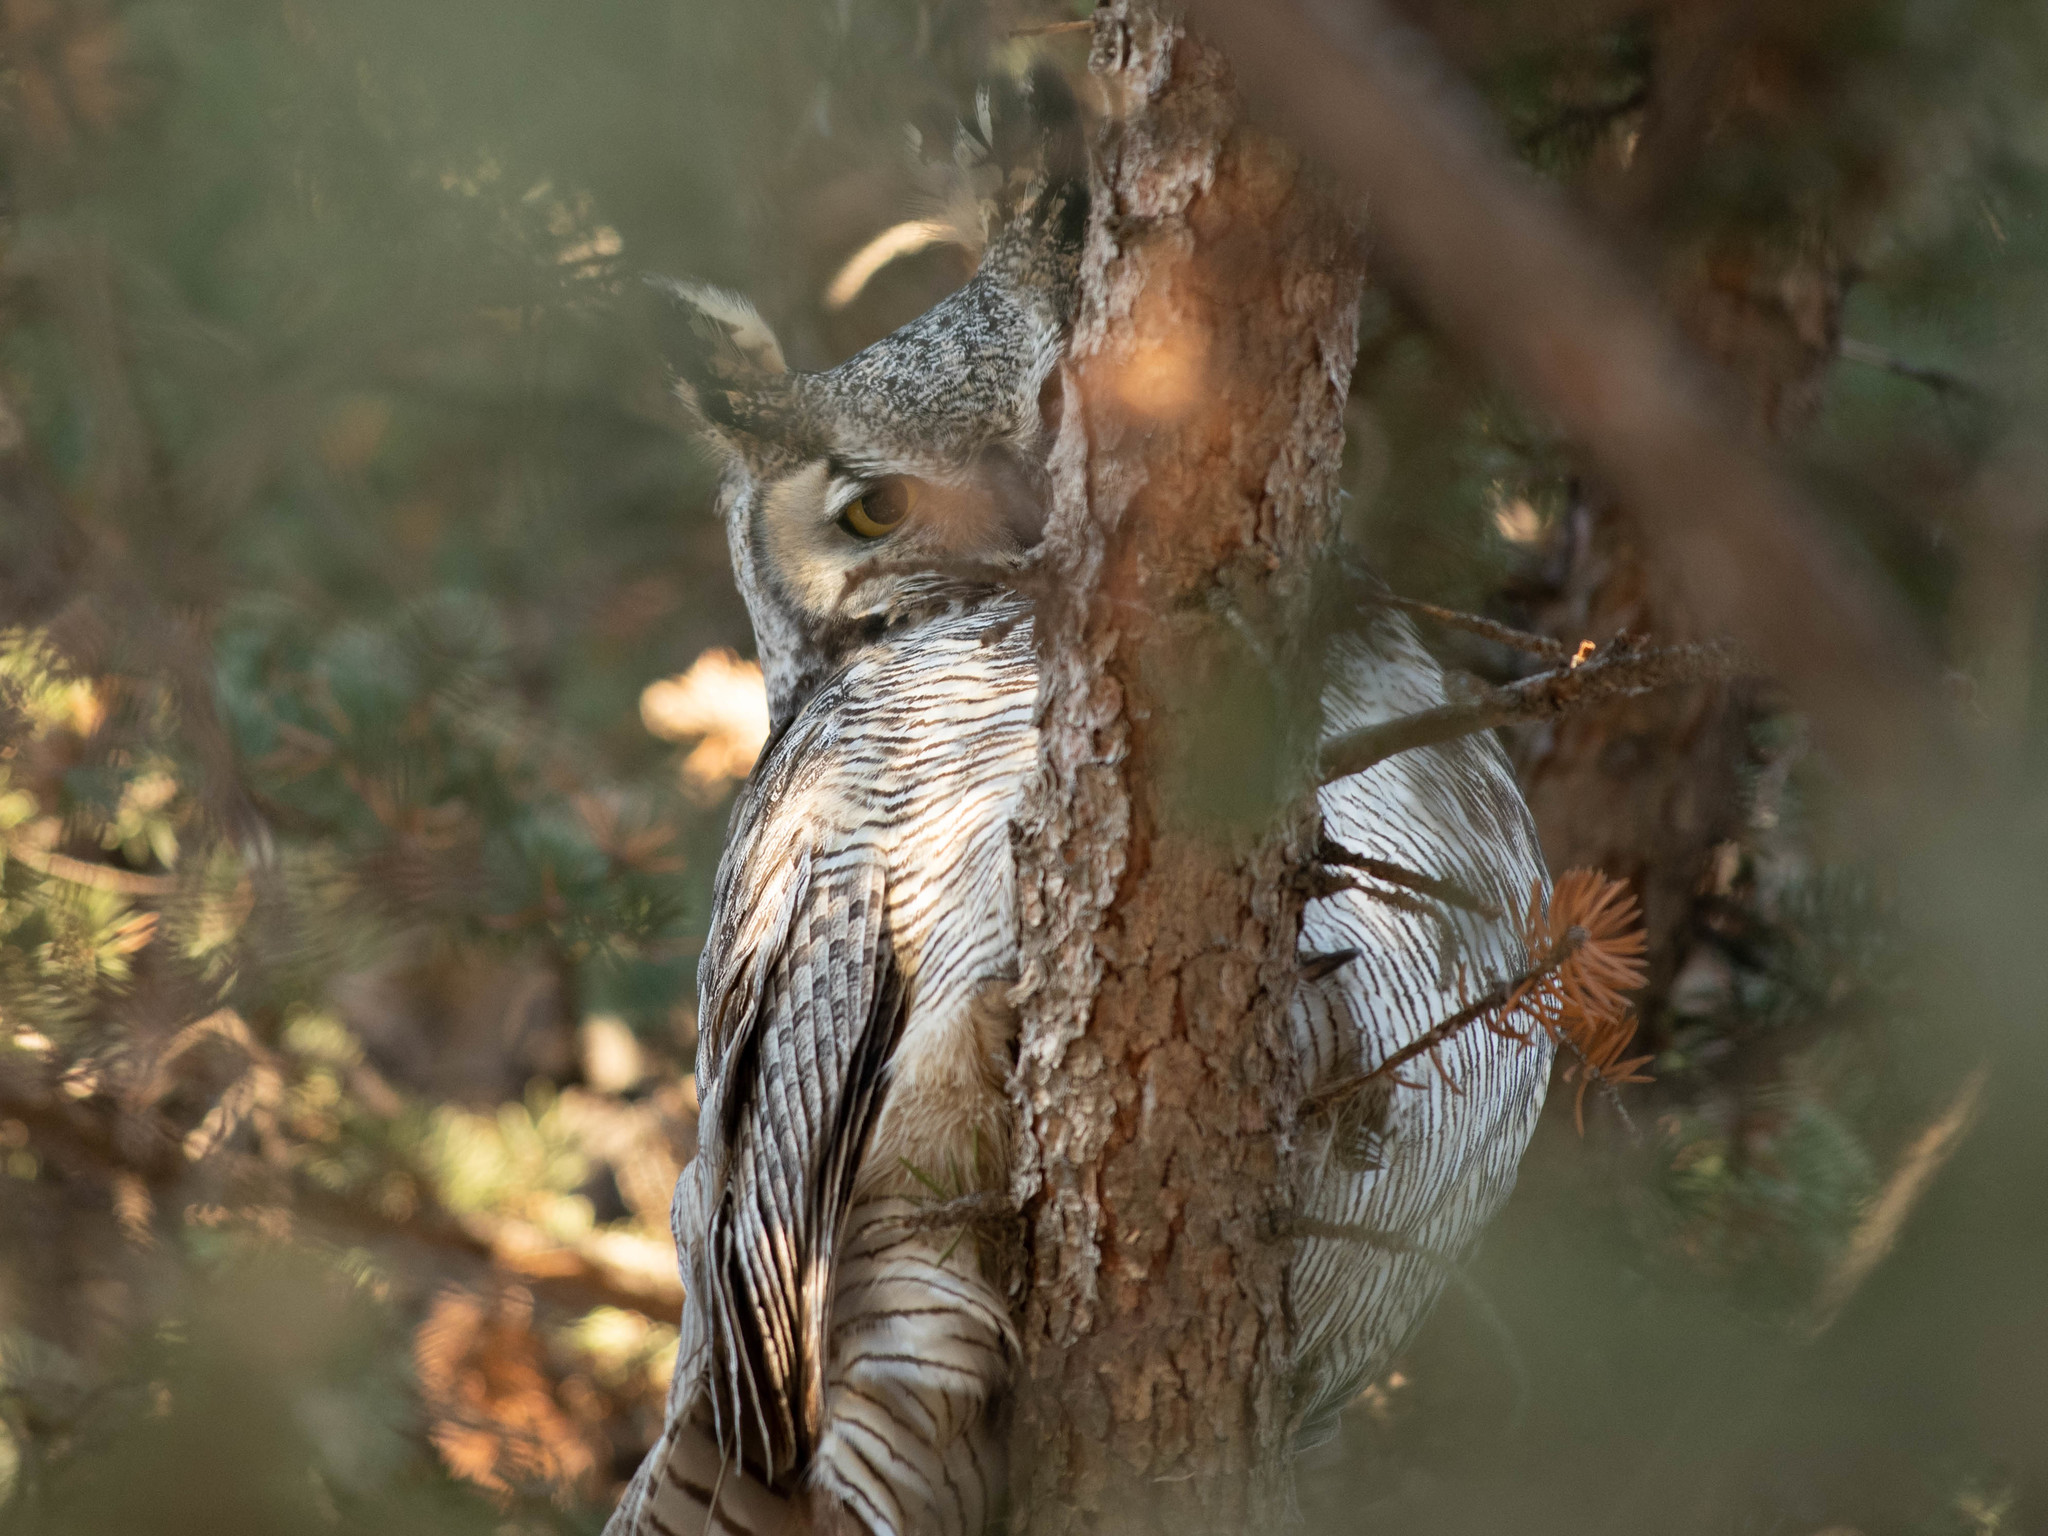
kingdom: Animalia
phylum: Chordata
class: Aves
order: Strigiformes
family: Strigidae
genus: Bubo
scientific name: Bubo virginianus
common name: Great horned owl
